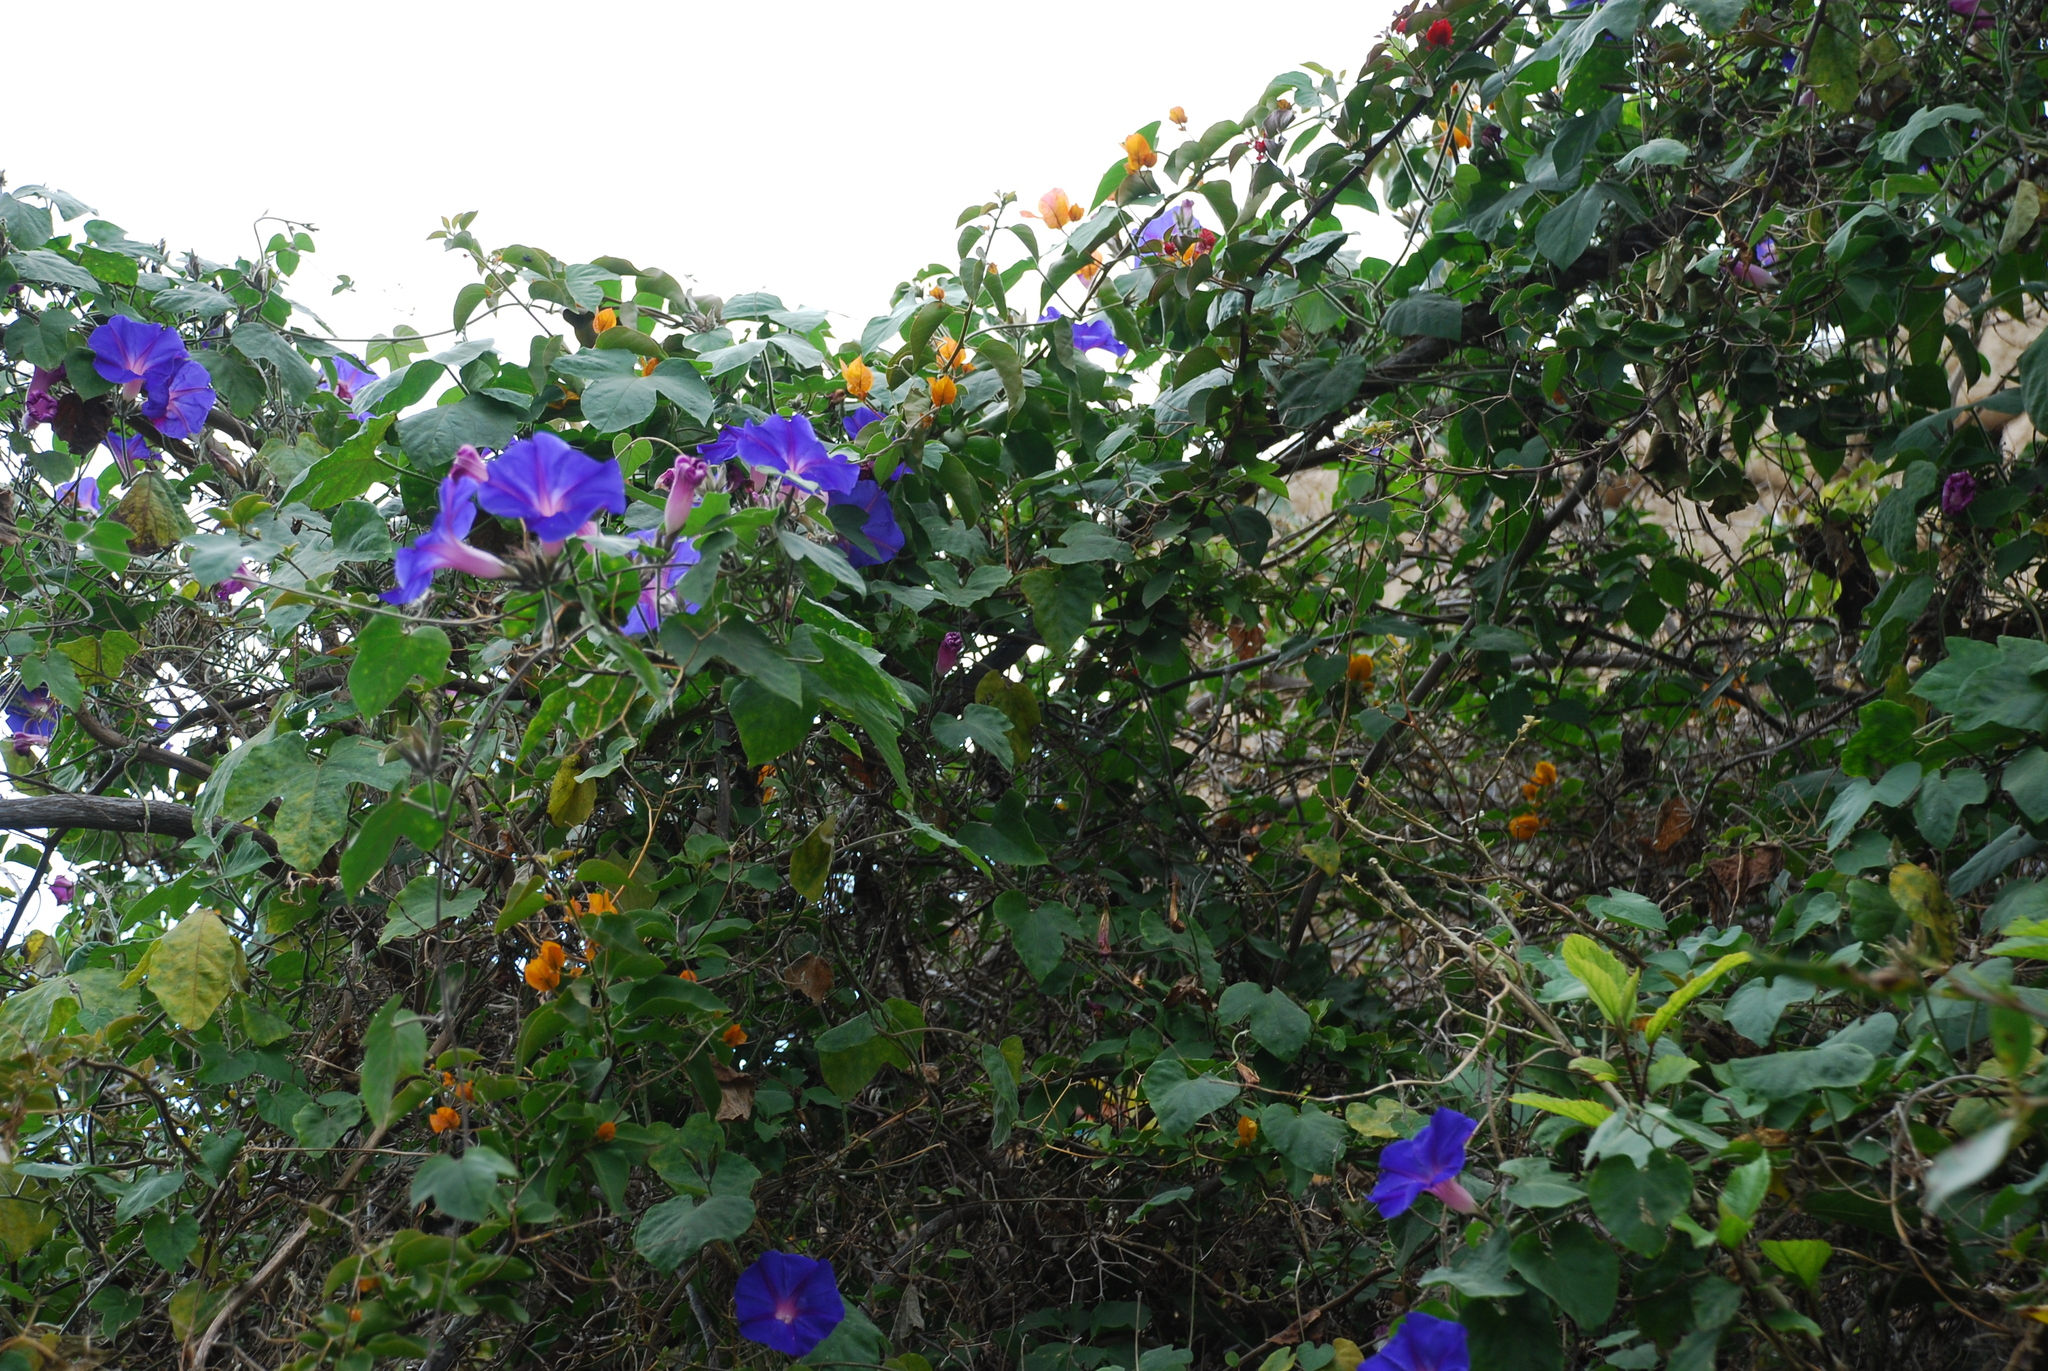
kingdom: Plantae
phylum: Tracheophyta
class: Magnoliopsida
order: Solanales
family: Convolvulaceae
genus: Ipomoea
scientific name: Ipomoea indica
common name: Blue dawnflower
